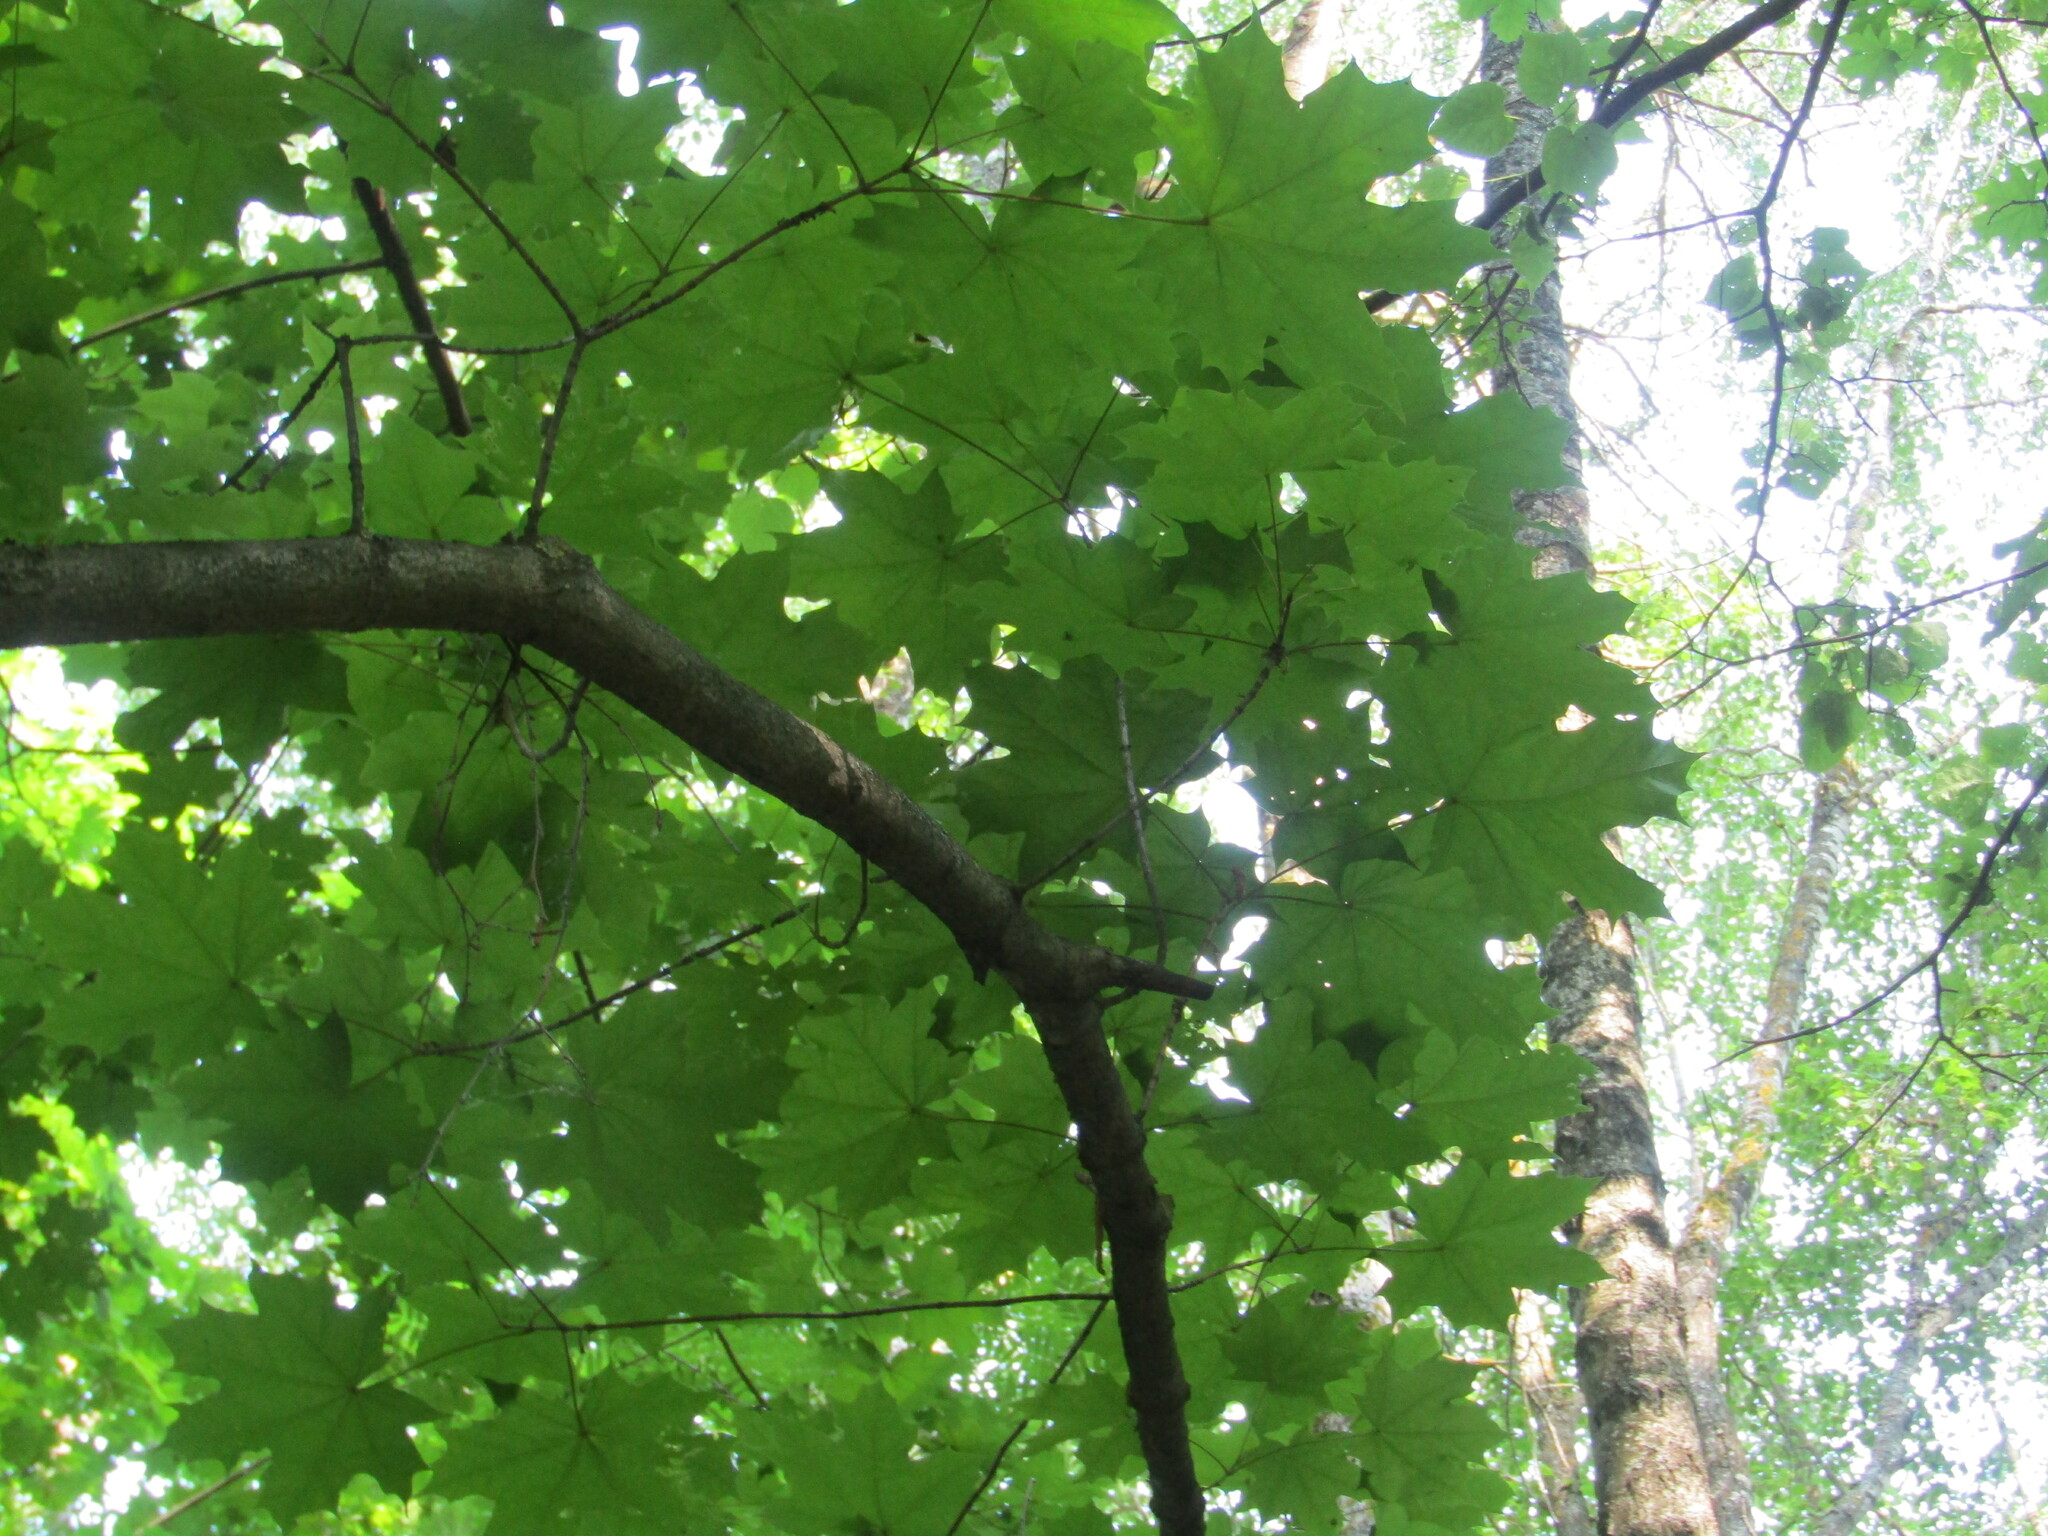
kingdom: Plantae
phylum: Tracheophyta
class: Magnoliopsida
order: Sapindales
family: Sapindaceae
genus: Acer
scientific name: Acer platanoides
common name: Norway maple
